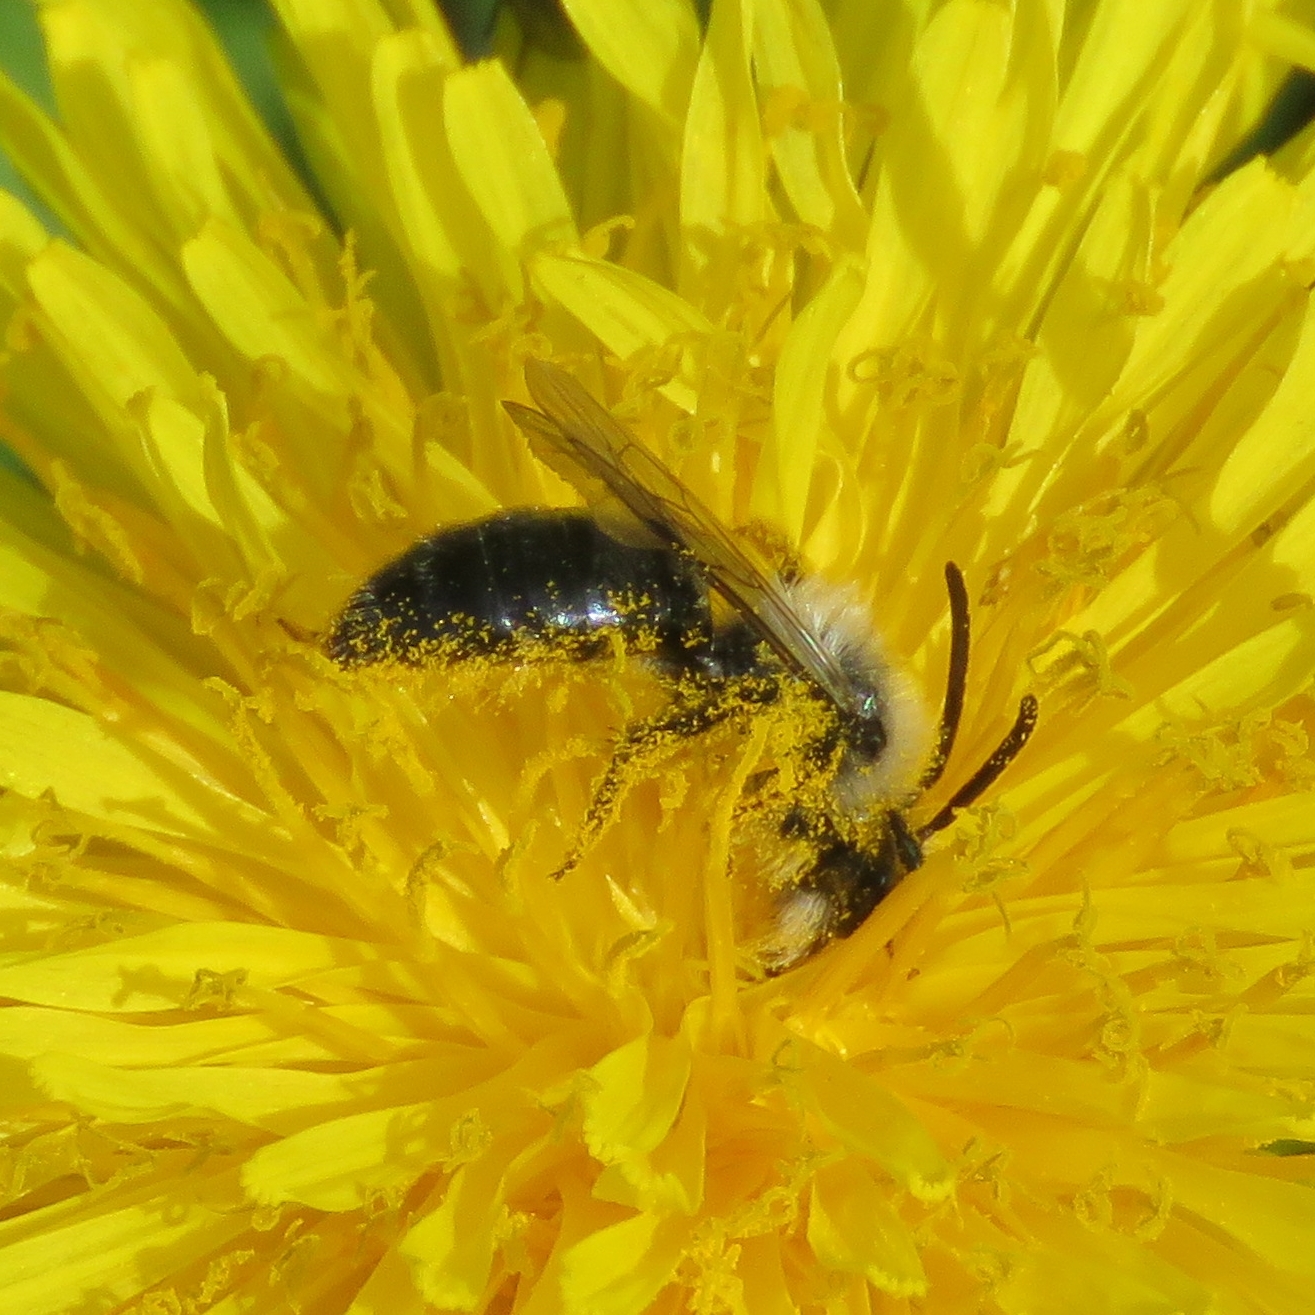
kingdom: Animalia
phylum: Arthropoda
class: Insecta
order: Hymenoptera
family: Andrenidae
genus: Andrena
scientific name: Andrena cineraria
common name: Ashy mining bee
